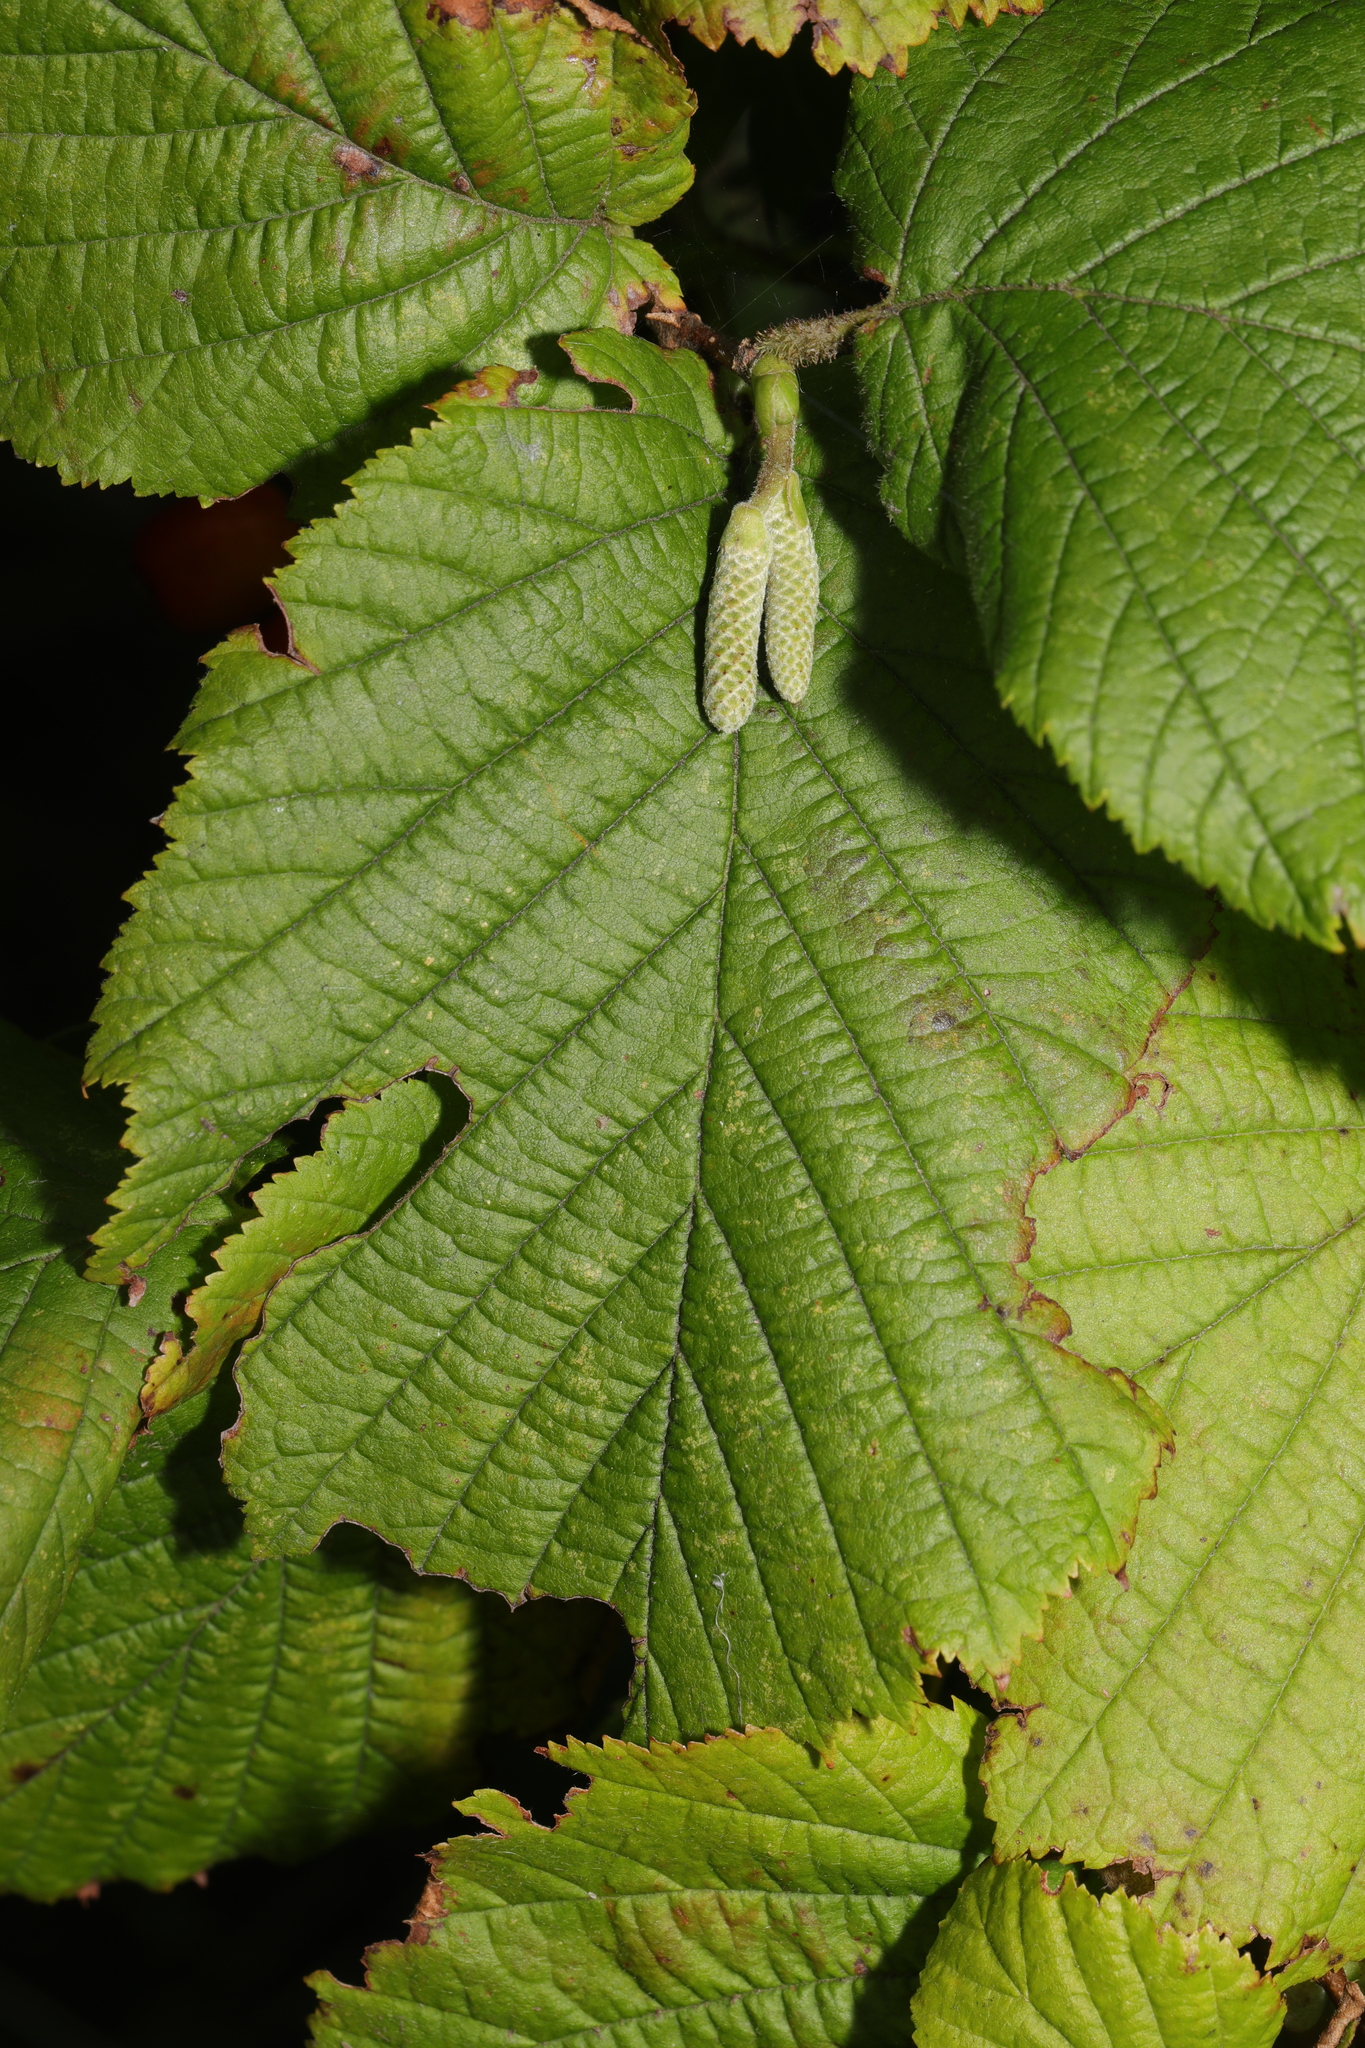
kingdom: Plantae
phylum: Tracheophyta
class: Magnoliopsida
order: Fagales
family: Betulaceae
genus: Corylus
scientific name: Corylus avellana
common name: European hazel
